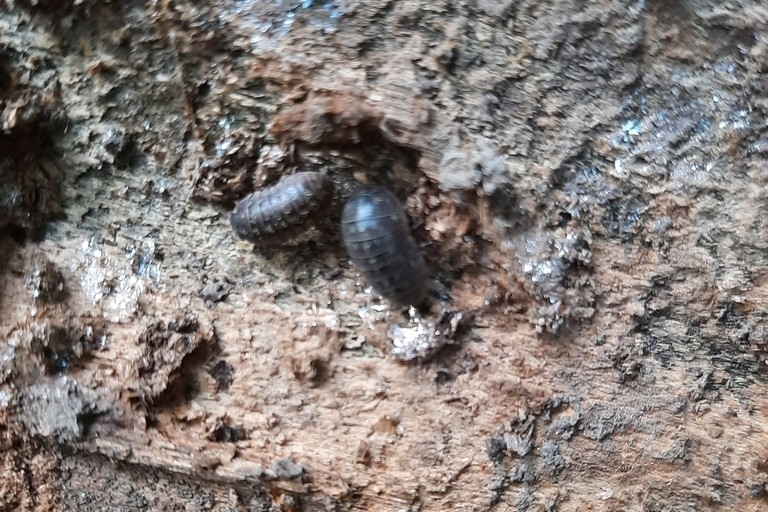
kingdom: Animalia
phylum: Arthropoda
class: Malacostraca
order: Isopoda
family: Armadillidiidae
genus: Armadillidium
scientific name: Armadillidium
